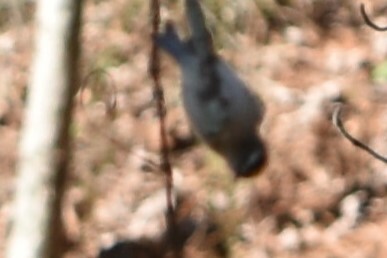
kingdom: Animalia
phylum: Chordata
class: Aves
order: Passeriformes
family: Regulidae
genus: Regulus
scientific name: Regulus satrapa
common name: Golden-crowned kinglet
